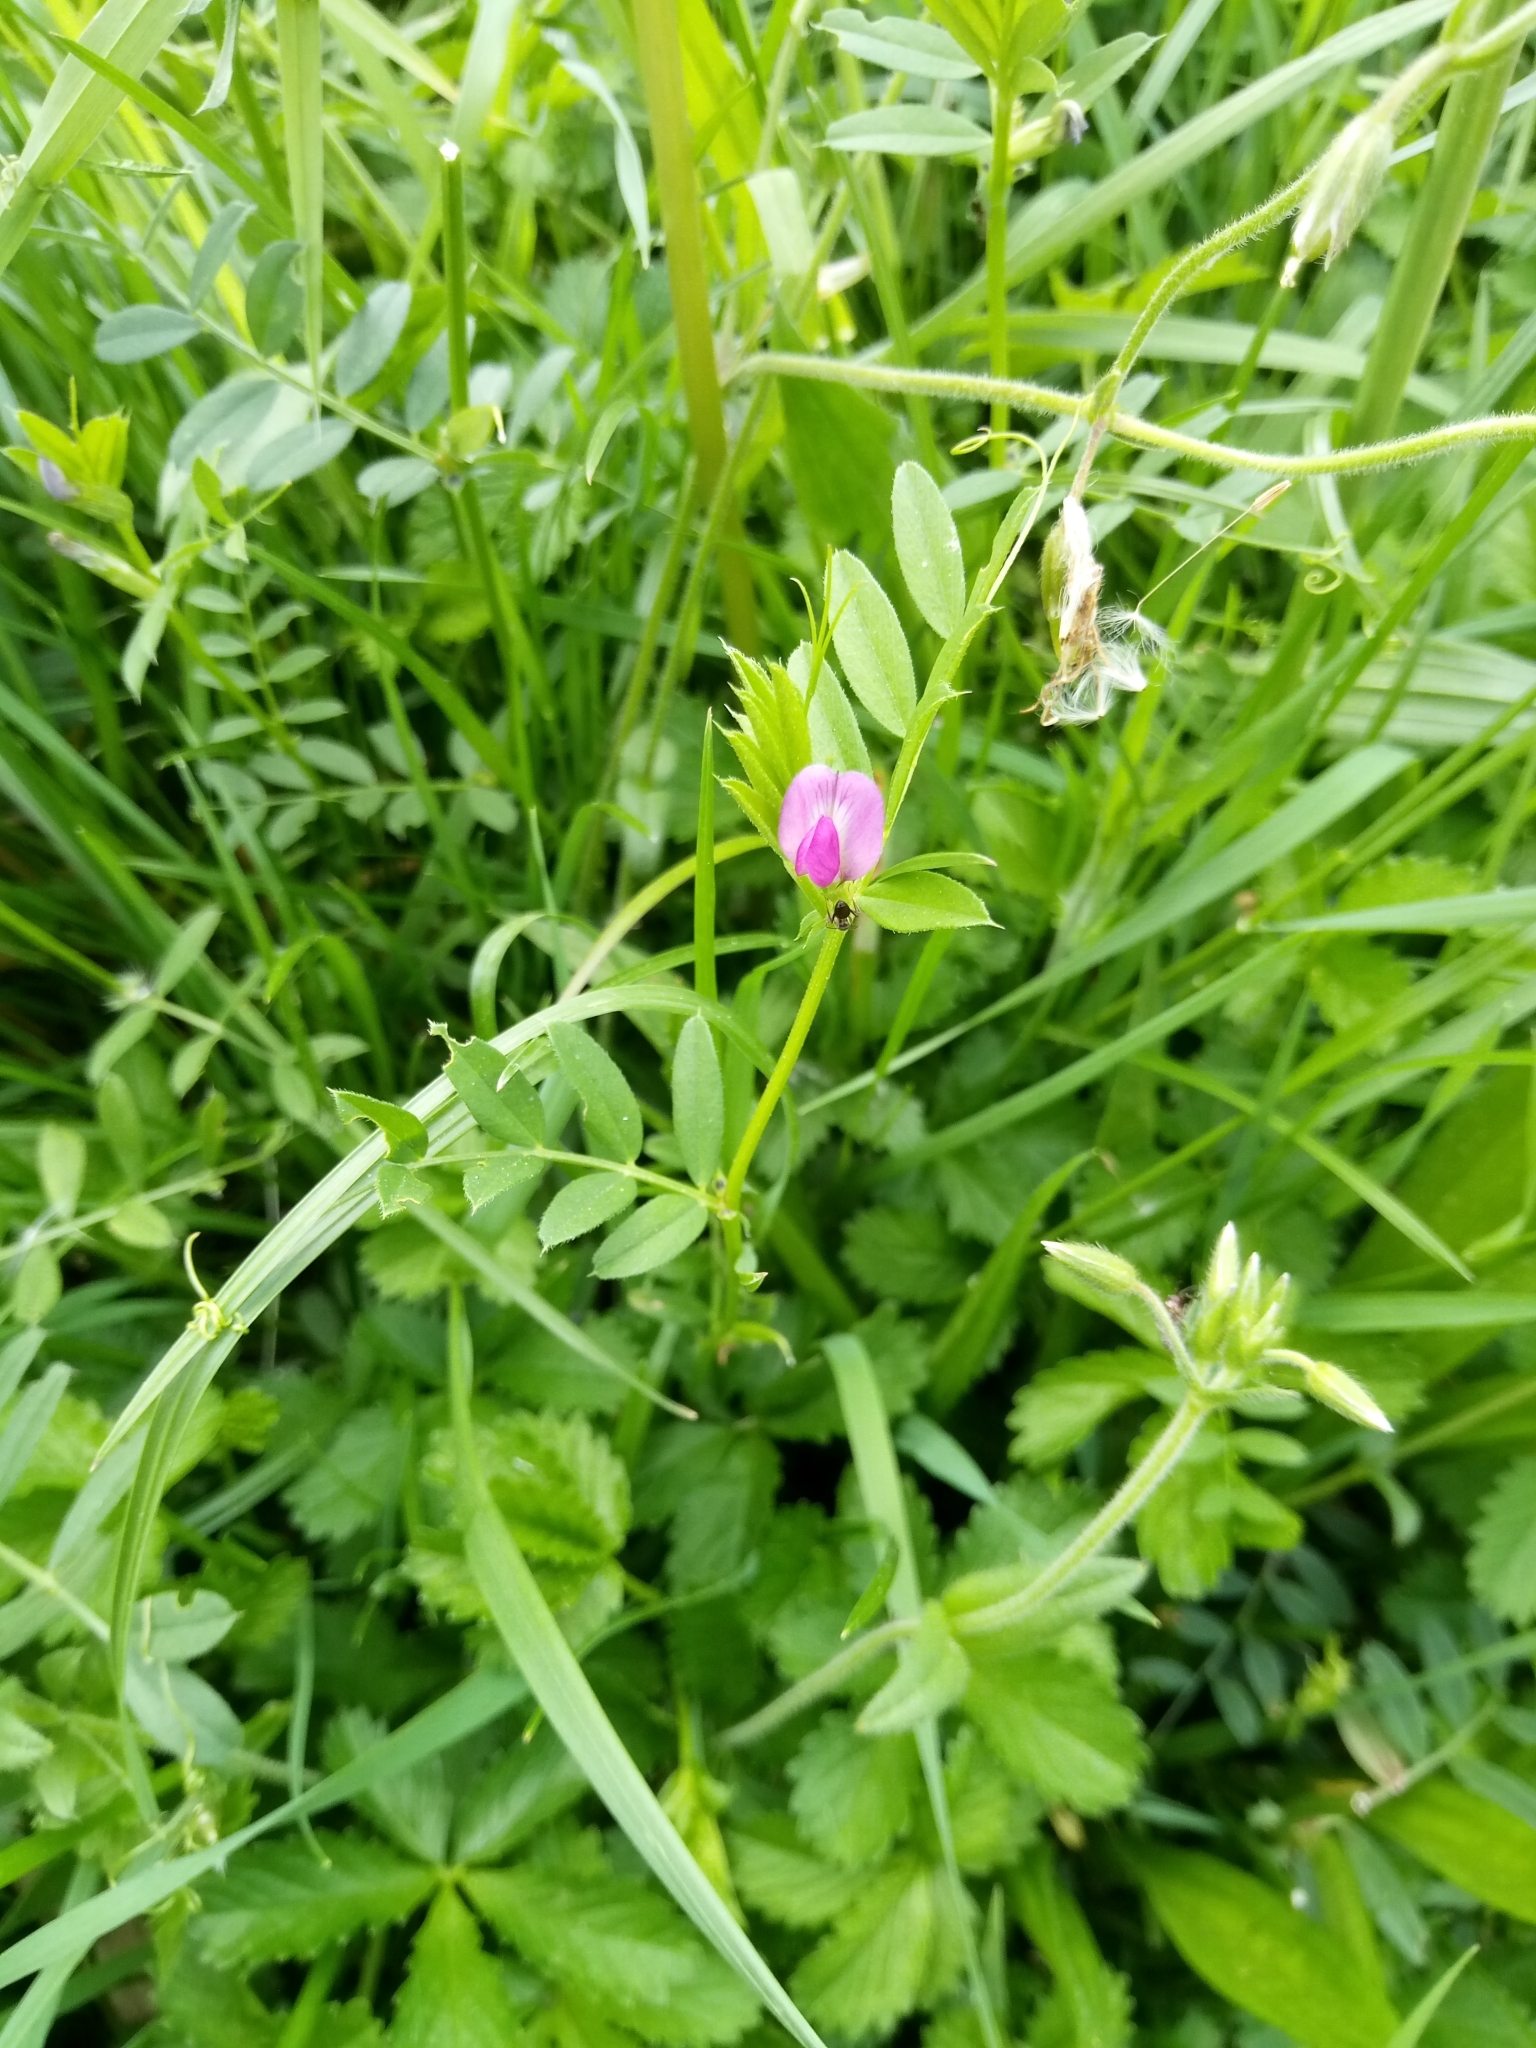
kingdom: Plantae
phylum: Tracheophyta
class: Magnoliopsida
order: Fabales
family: Fabaceae
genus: Vicia
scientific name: Vicia sativa
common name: Garden vetch
